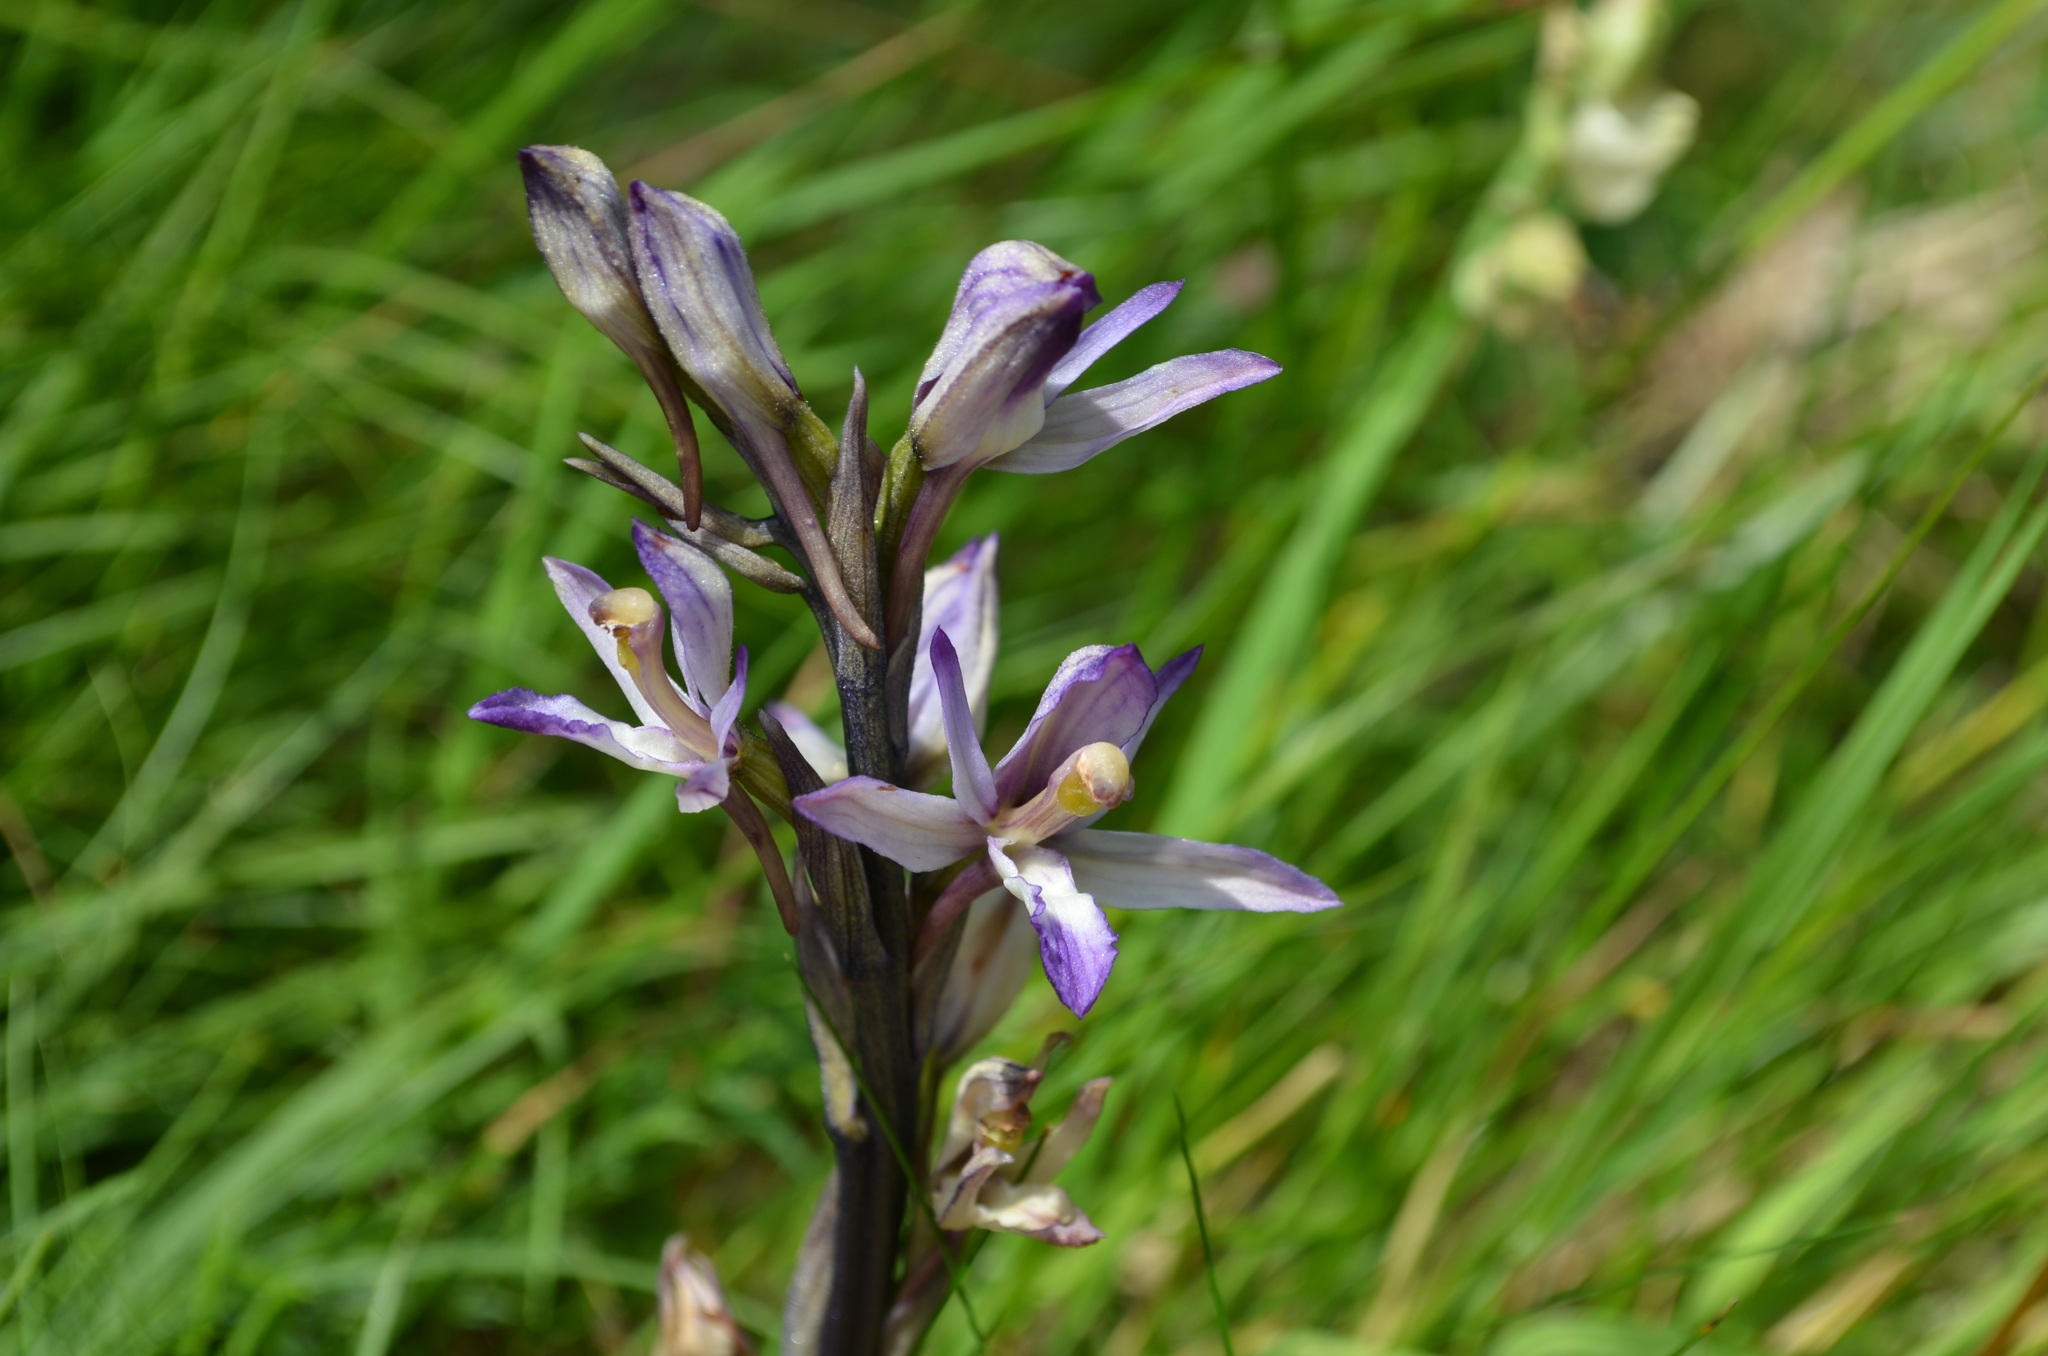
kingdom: Plantae
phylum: Tracheophyta
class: Liliopsida
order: Asparagales
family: Orchidaceae
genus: Limodorum
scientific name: Limodorum abortivum
